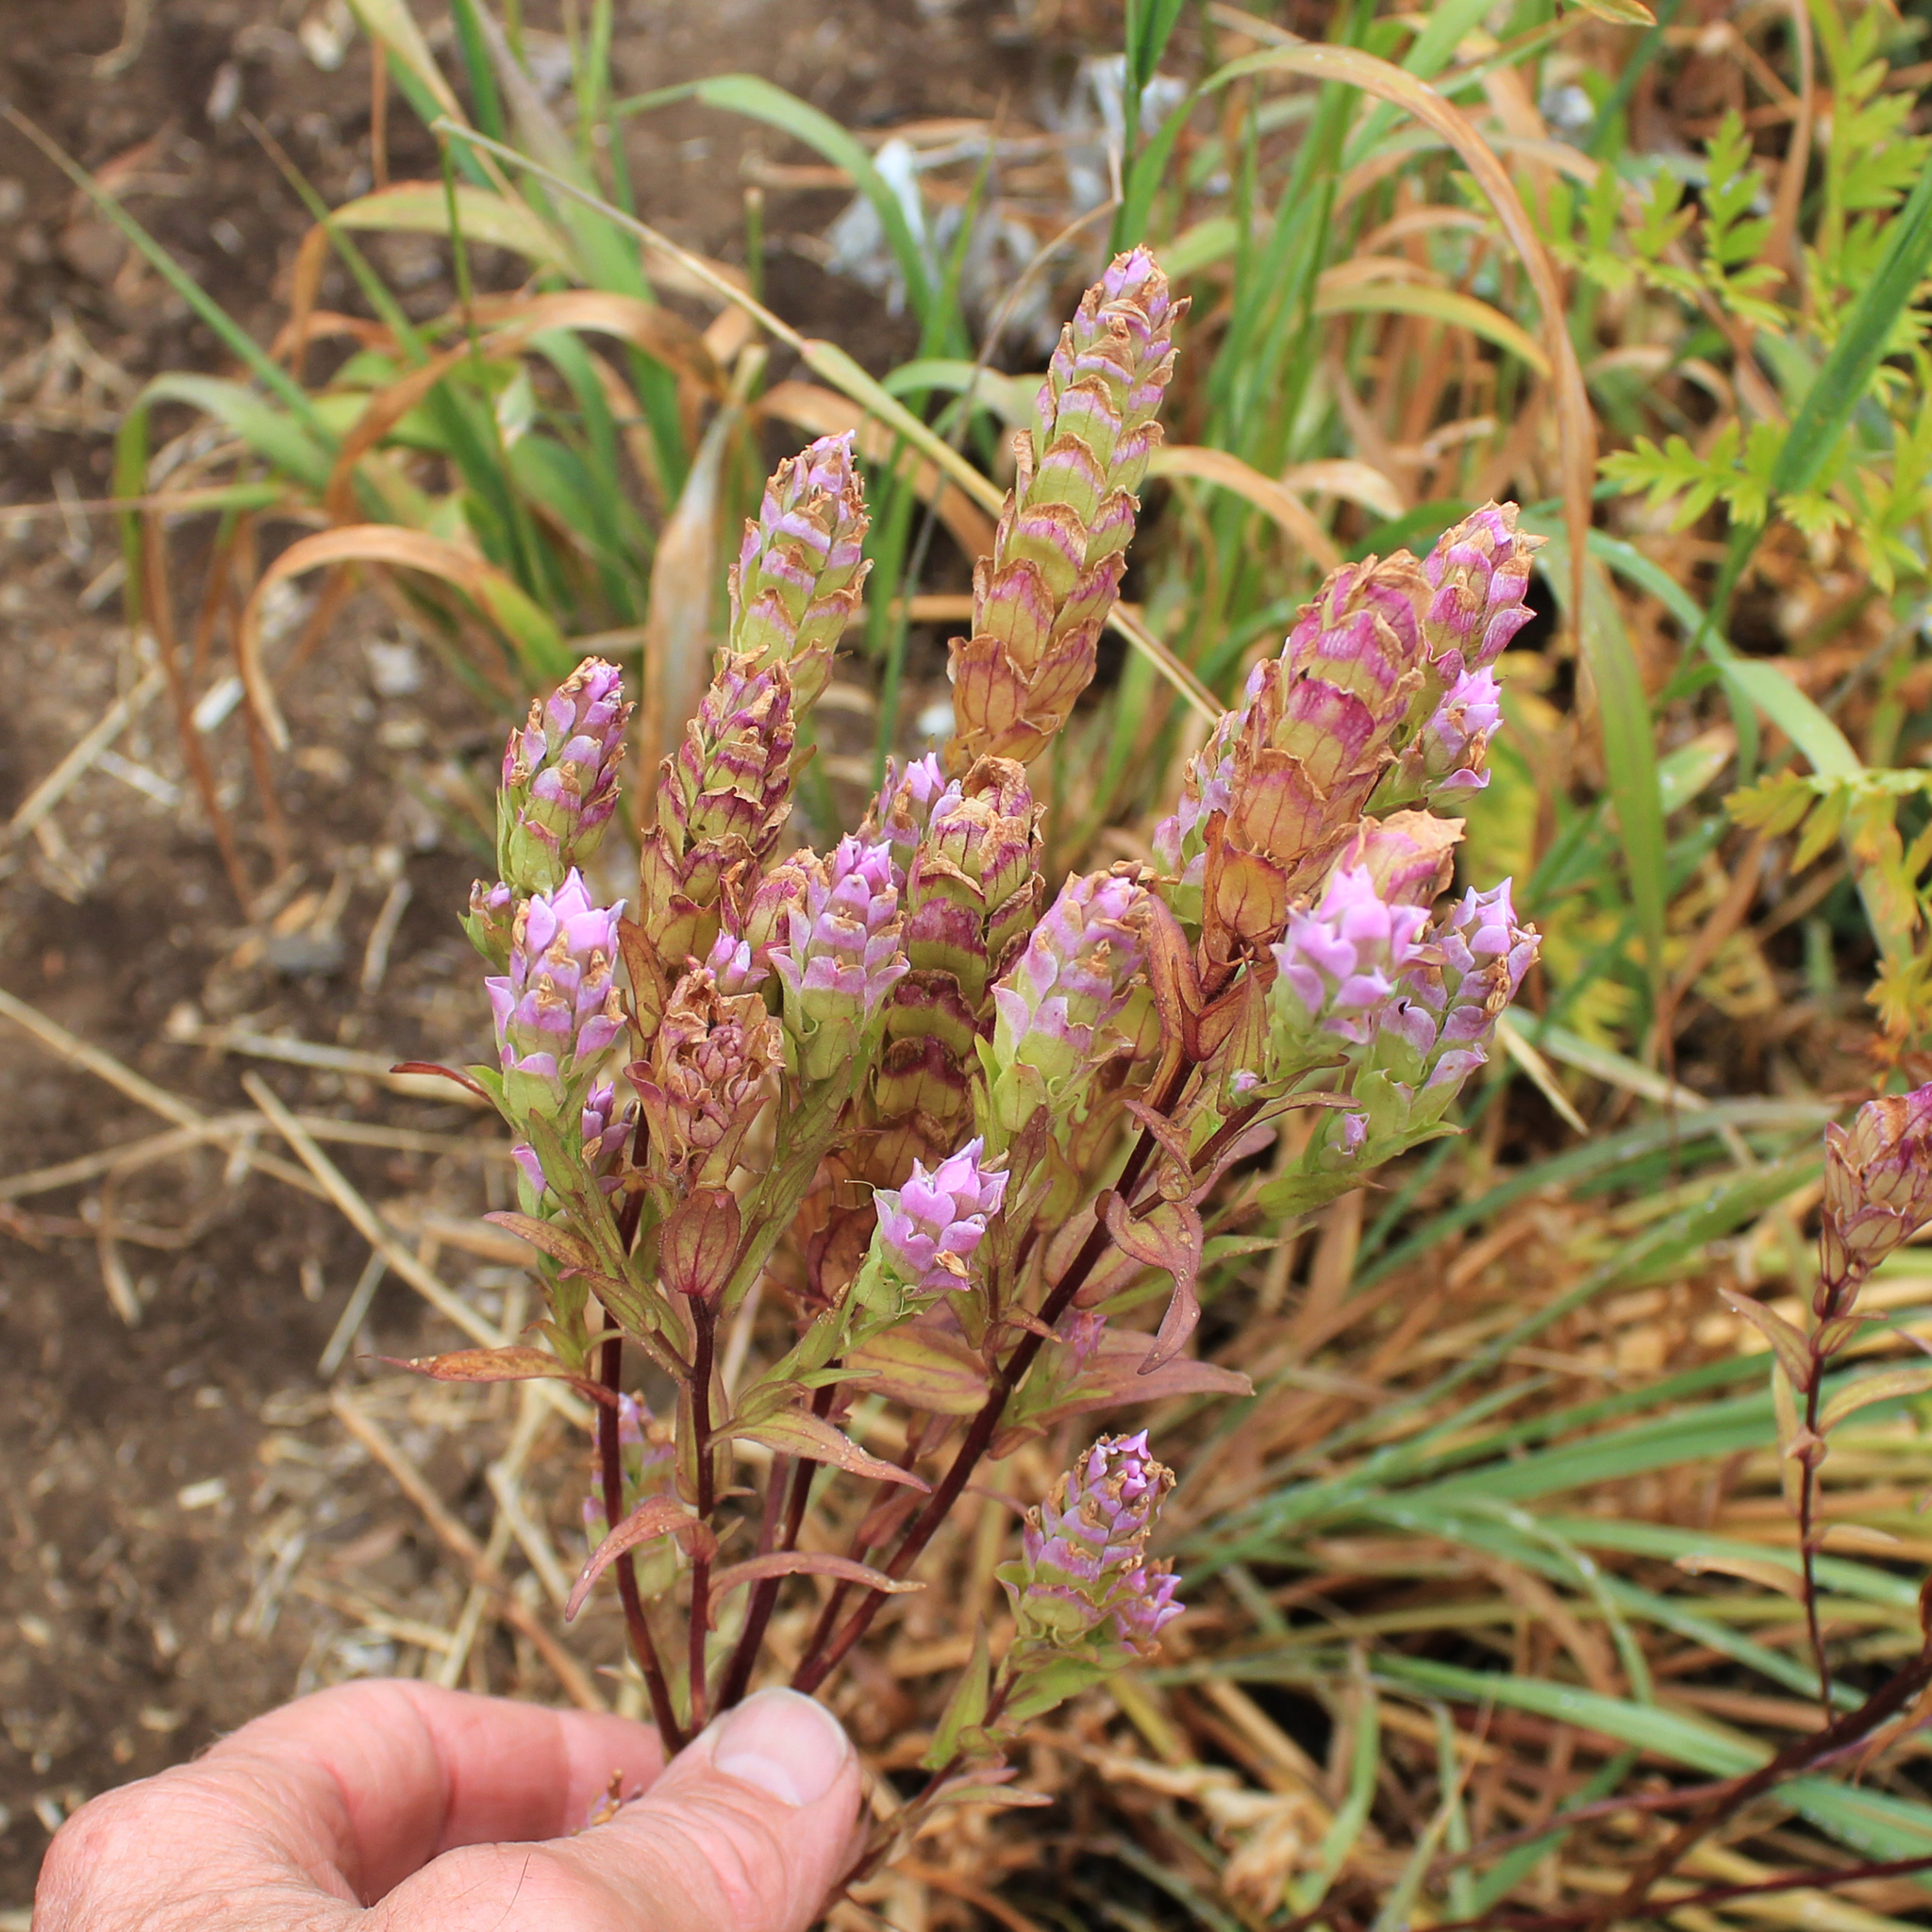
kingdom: Plantae
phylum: Tracheophyta
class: Magnoliopsida
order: Lamiales
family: Orobanchaceae
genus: Orthocarpus
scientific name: Orthocarpus imbricatus
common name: Mountain owl's-clover
